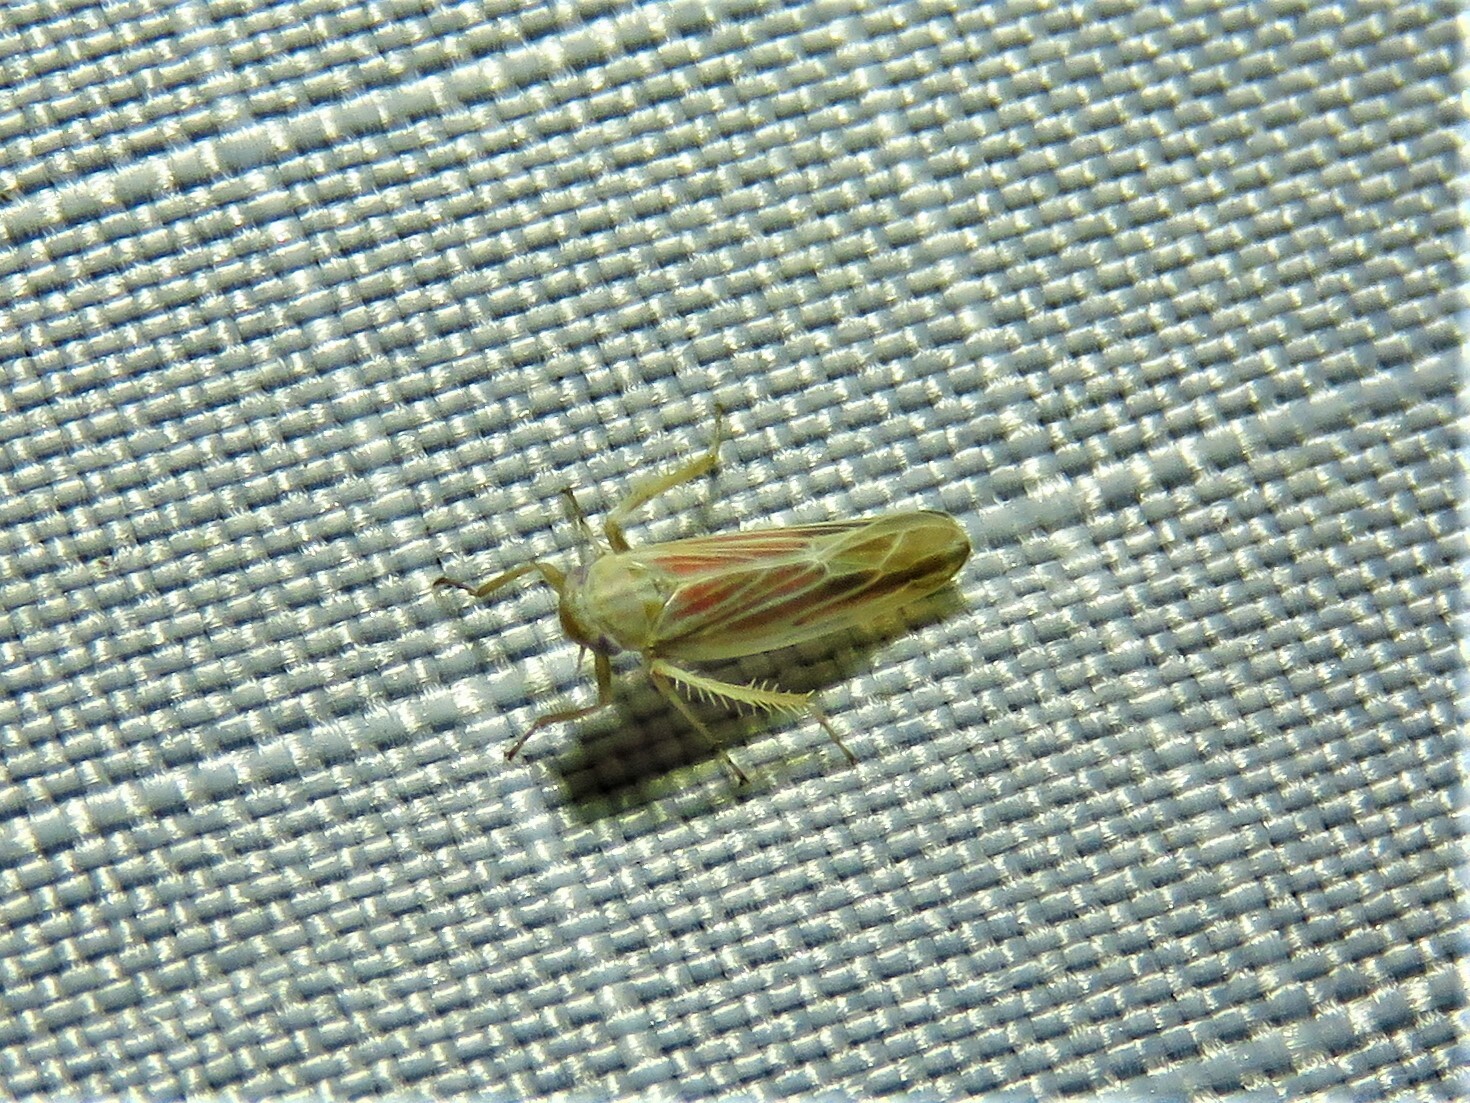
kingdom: Animalia
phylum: Arthropoda
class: Insecta
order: Hemiptera
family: Cicadellidae
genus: Balclutha
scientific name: Balclutha rubrostriata
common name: Red-streaked leafhopper
